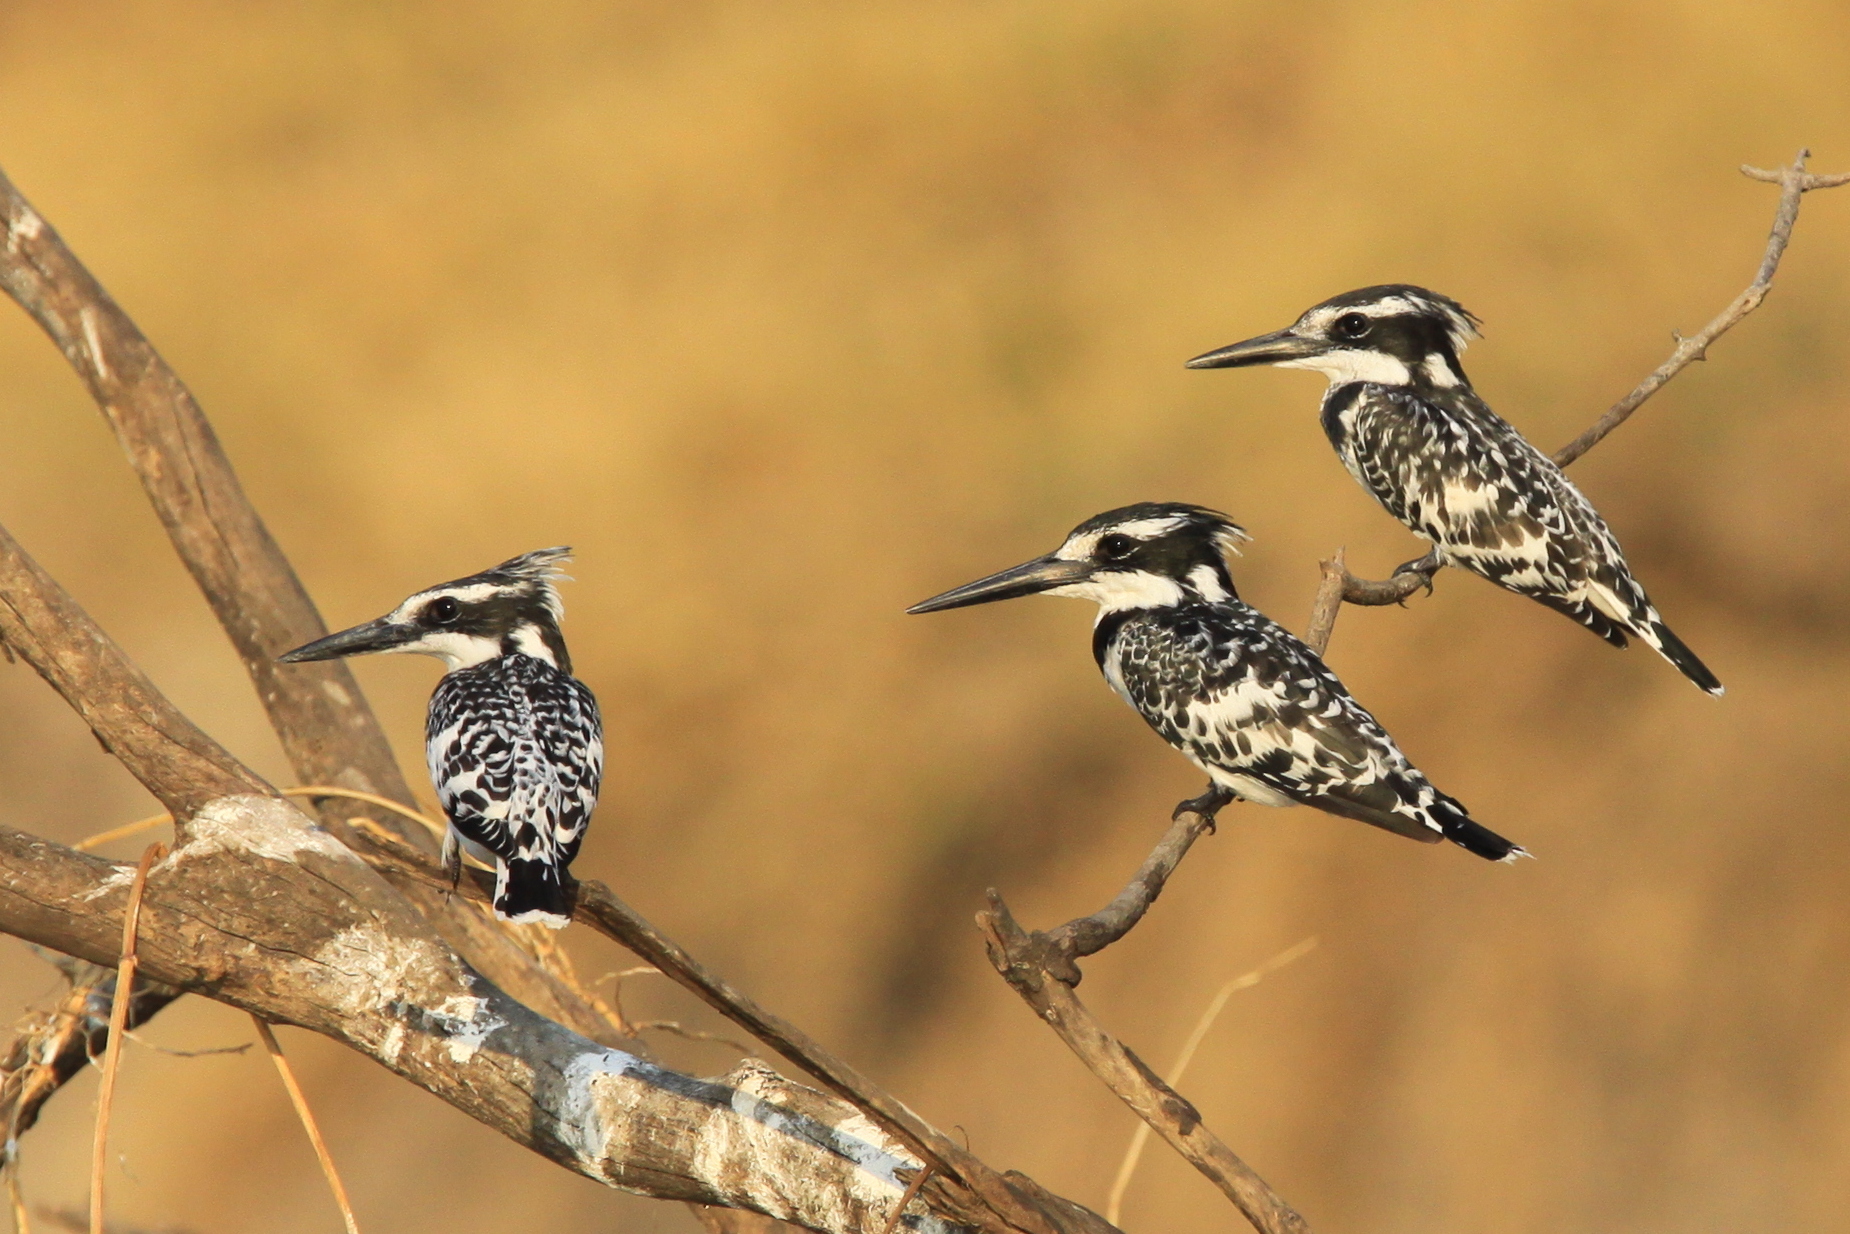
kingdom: Animalia
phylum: Chordata
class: Aves
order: Coraciiformes
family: Alcedinidae
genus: Ceryle
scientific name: Ceryle rudis
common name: Pied kingfisher
